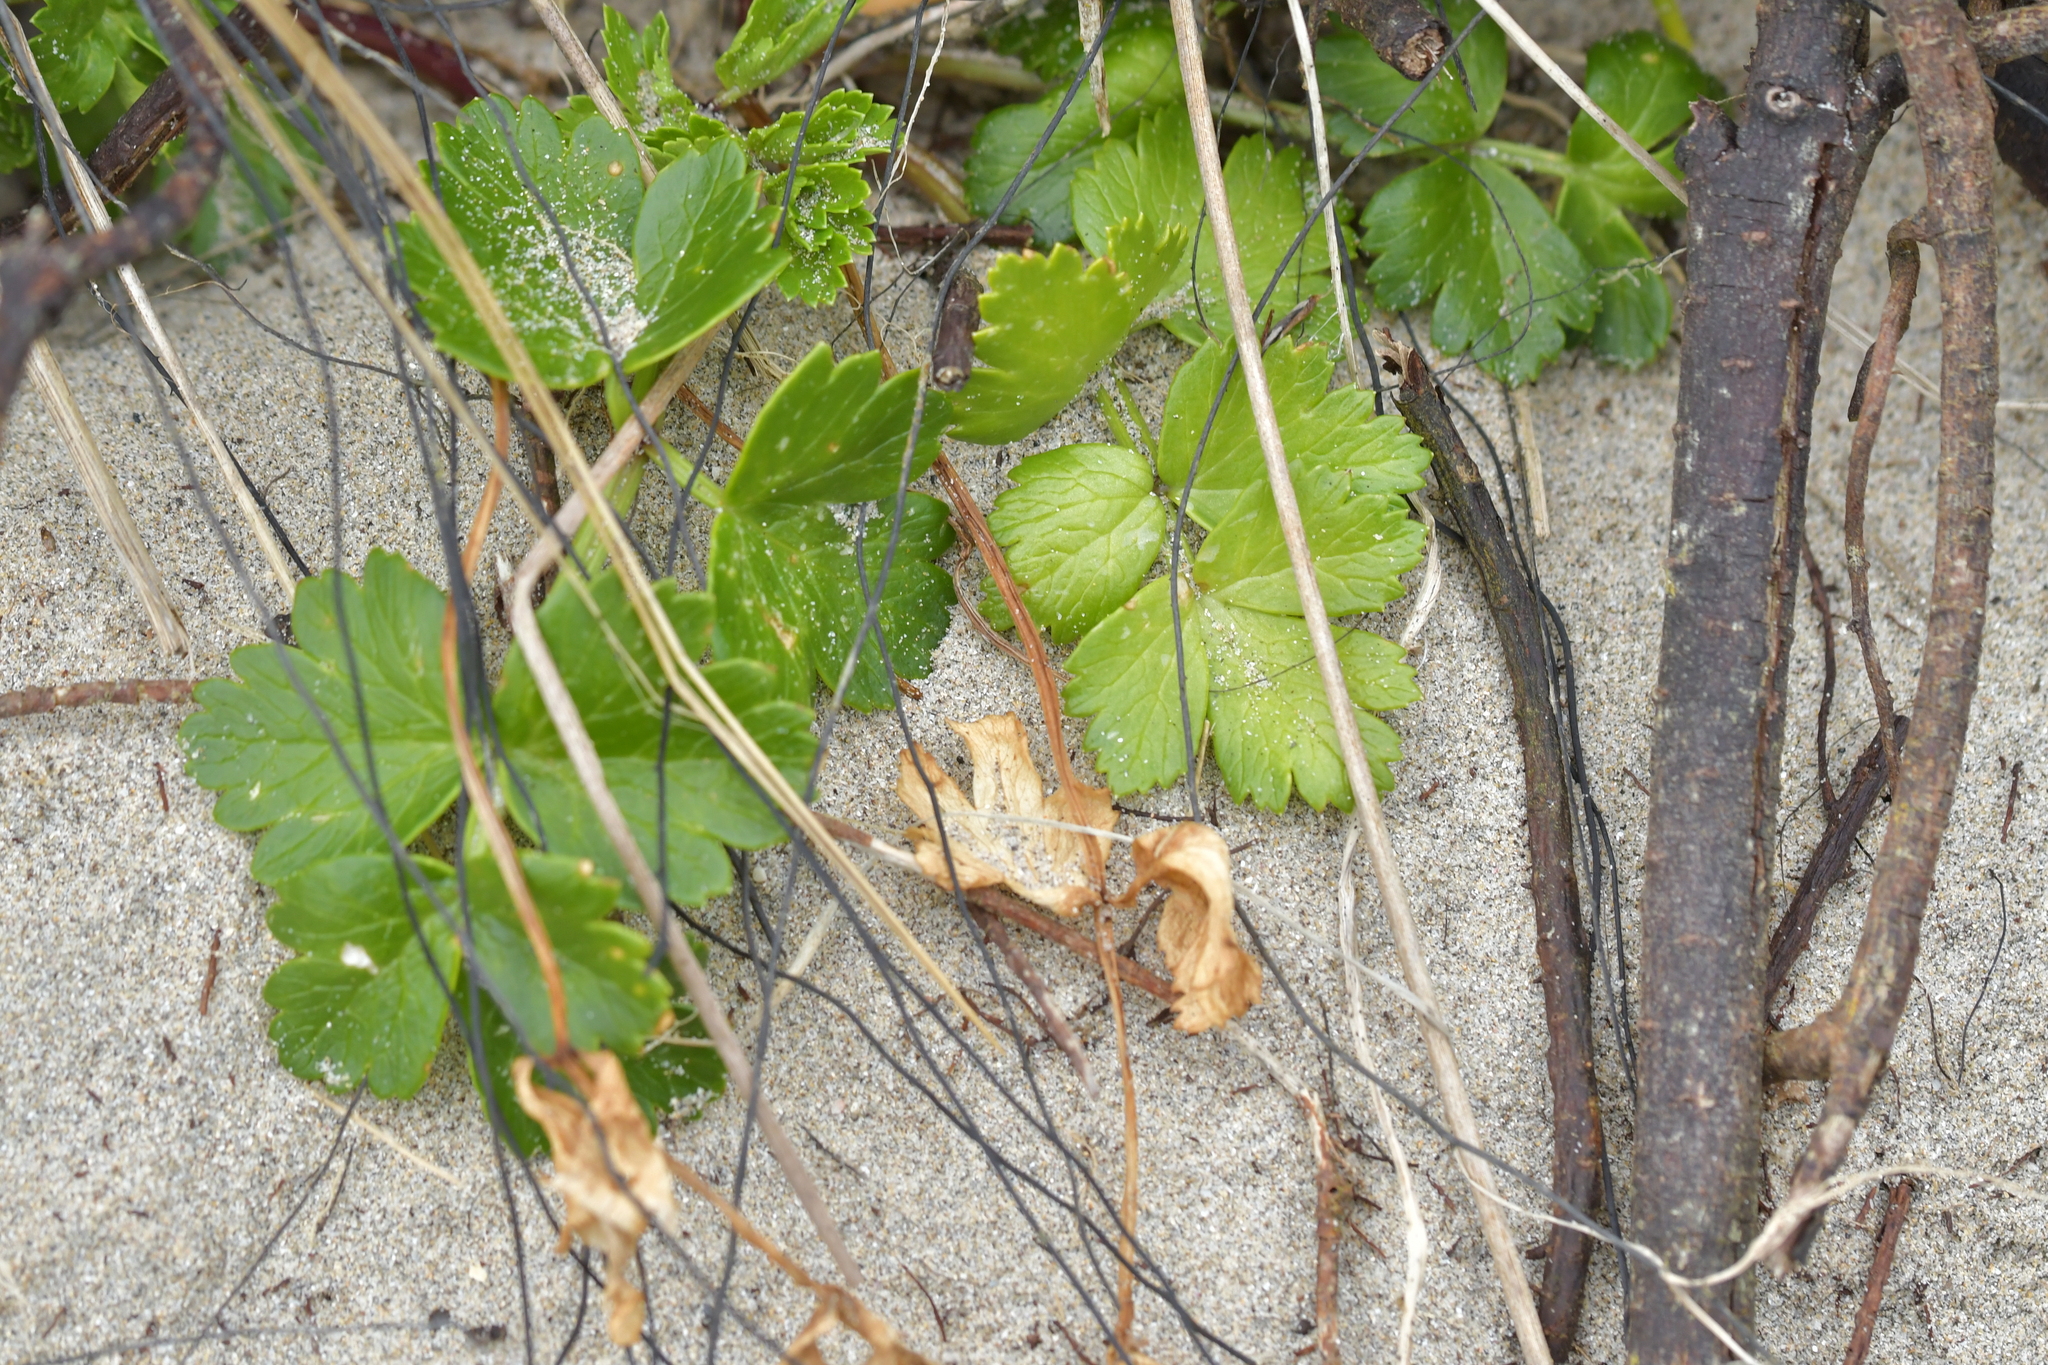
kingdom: Plantae
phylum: Tracheophyta
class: Magnoliopsida
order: Apiales
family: Apiaceae
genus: Apium
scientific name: Apium prostratum
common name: Prostrate marshwort
